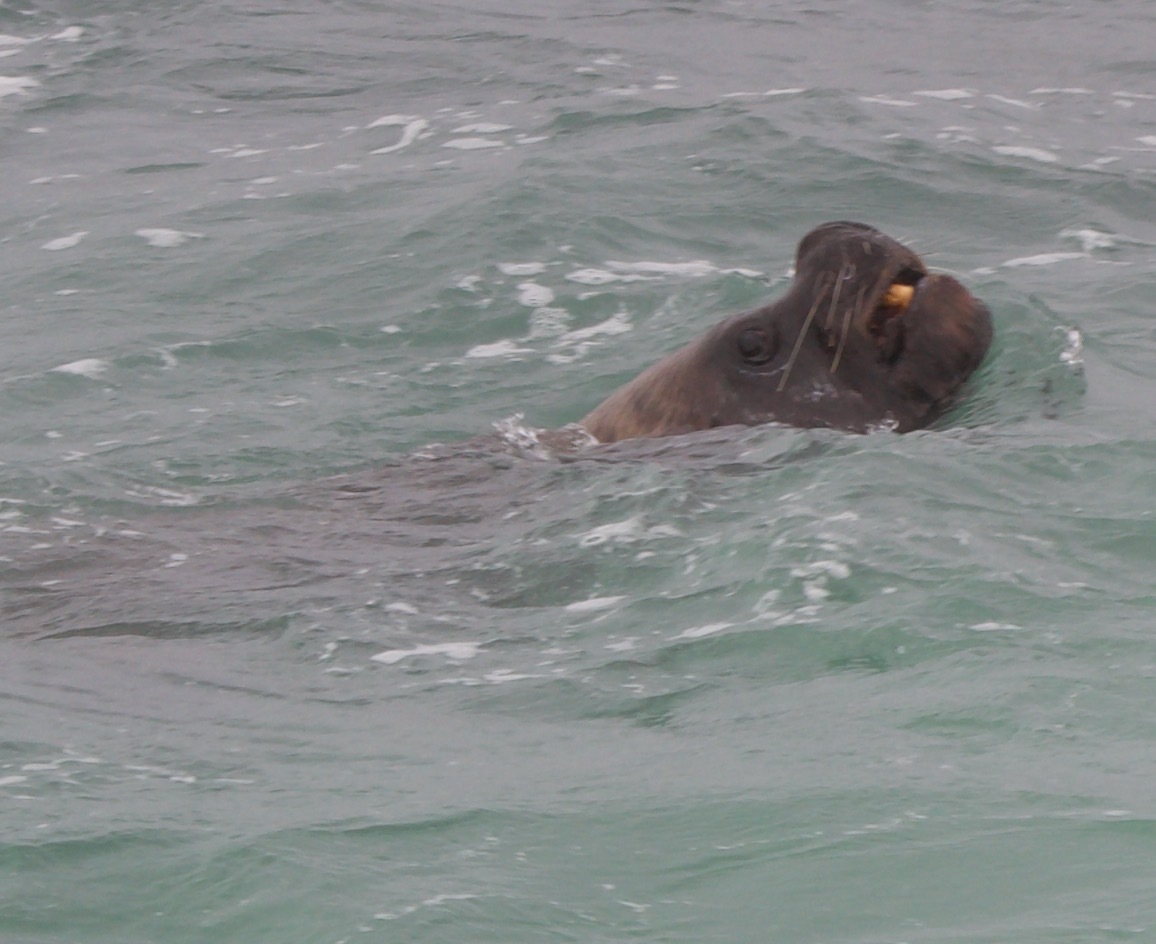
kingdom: Animalia
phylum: Chordata
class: Mammalia
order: Carnivora
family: Otariidae
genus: Otaria
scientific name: Otaria byronia
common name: South american sea lion
